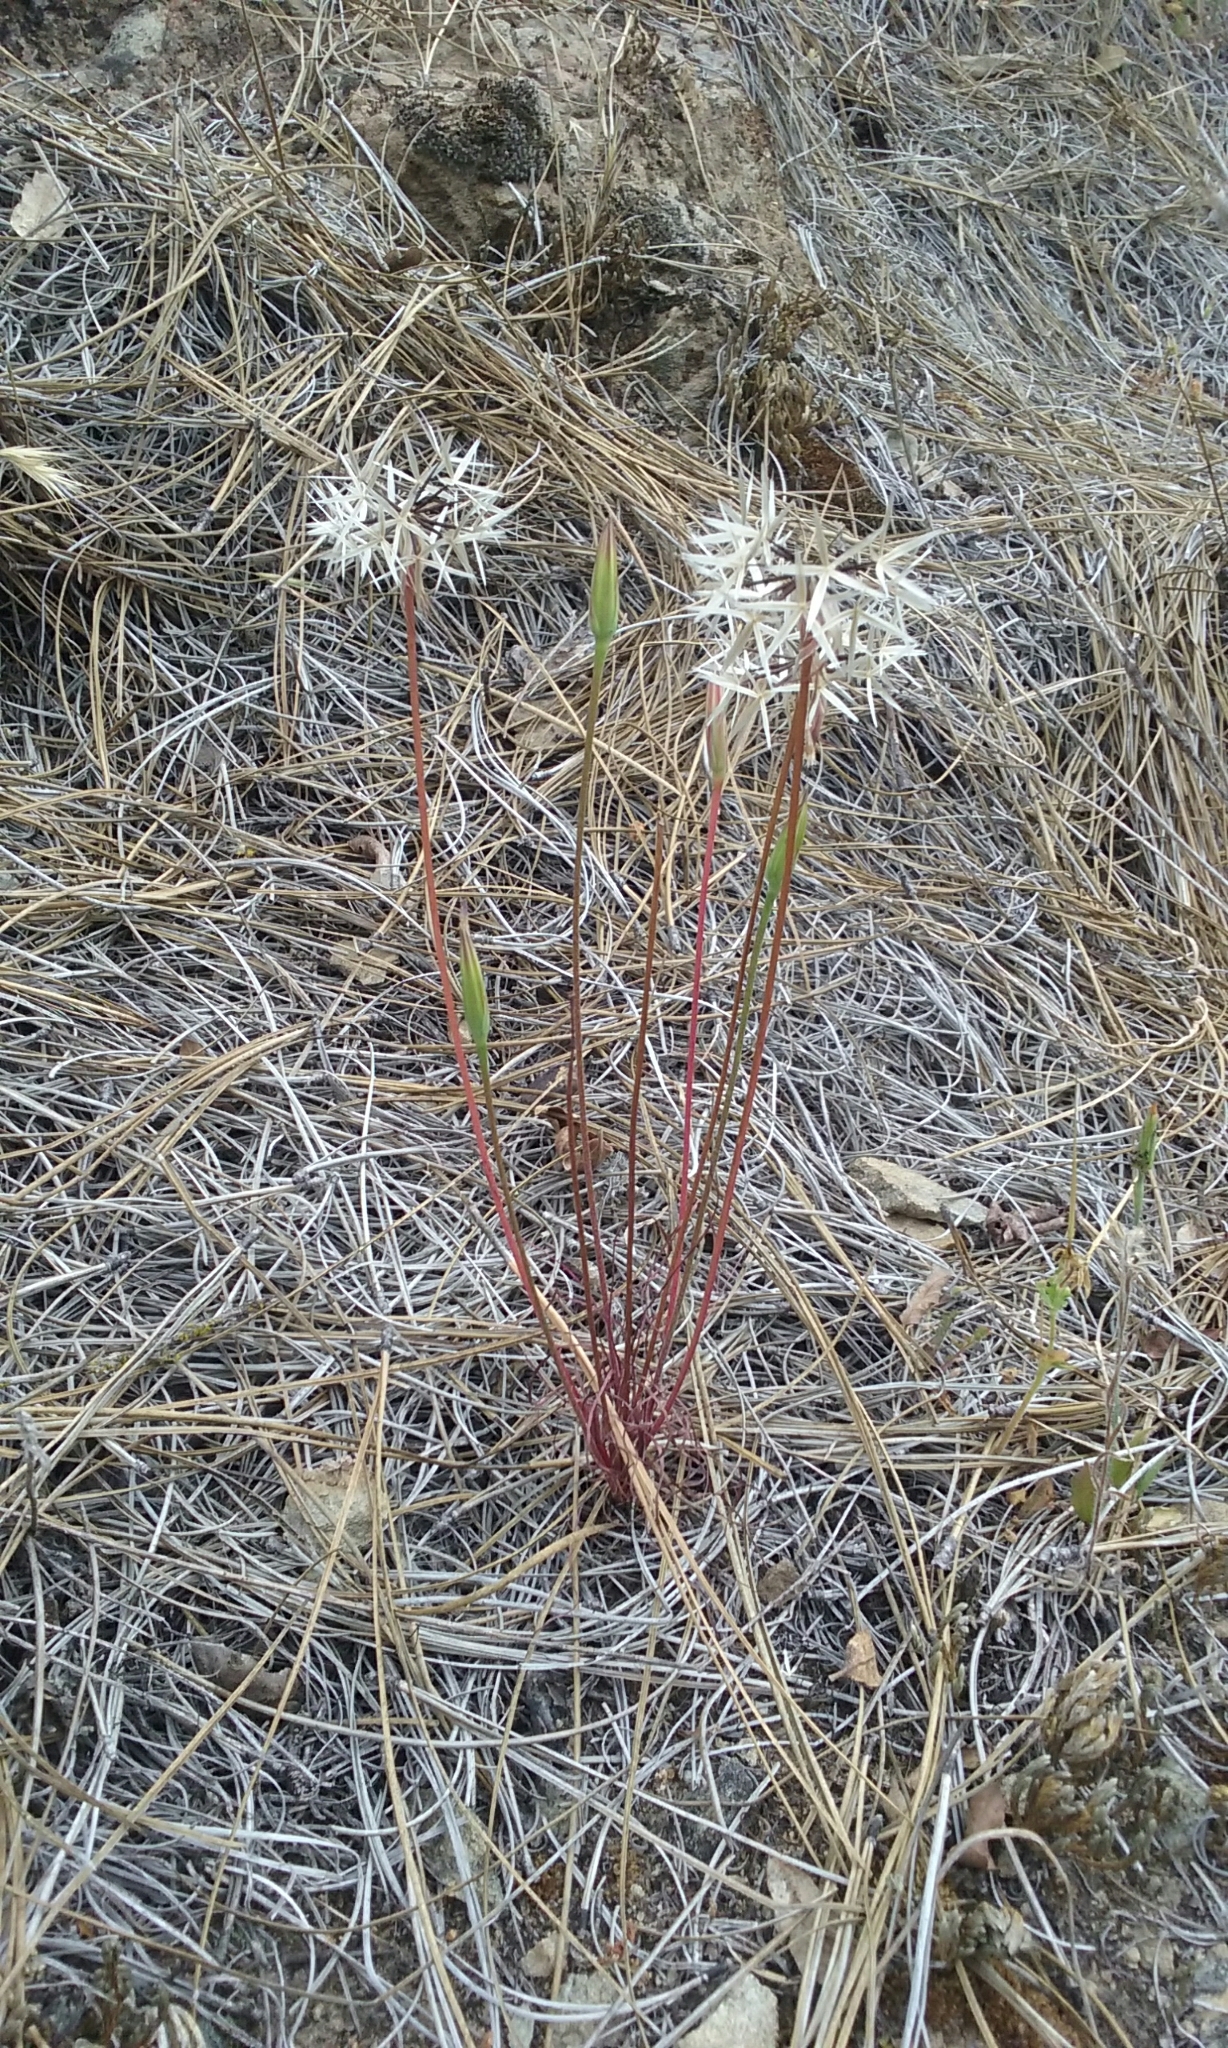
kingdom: Plantae
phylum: Tracheophyta
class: Magnoliopsida
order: Asterales
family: Asteraceae
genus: Microseris
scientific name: Microseris lindleyi
